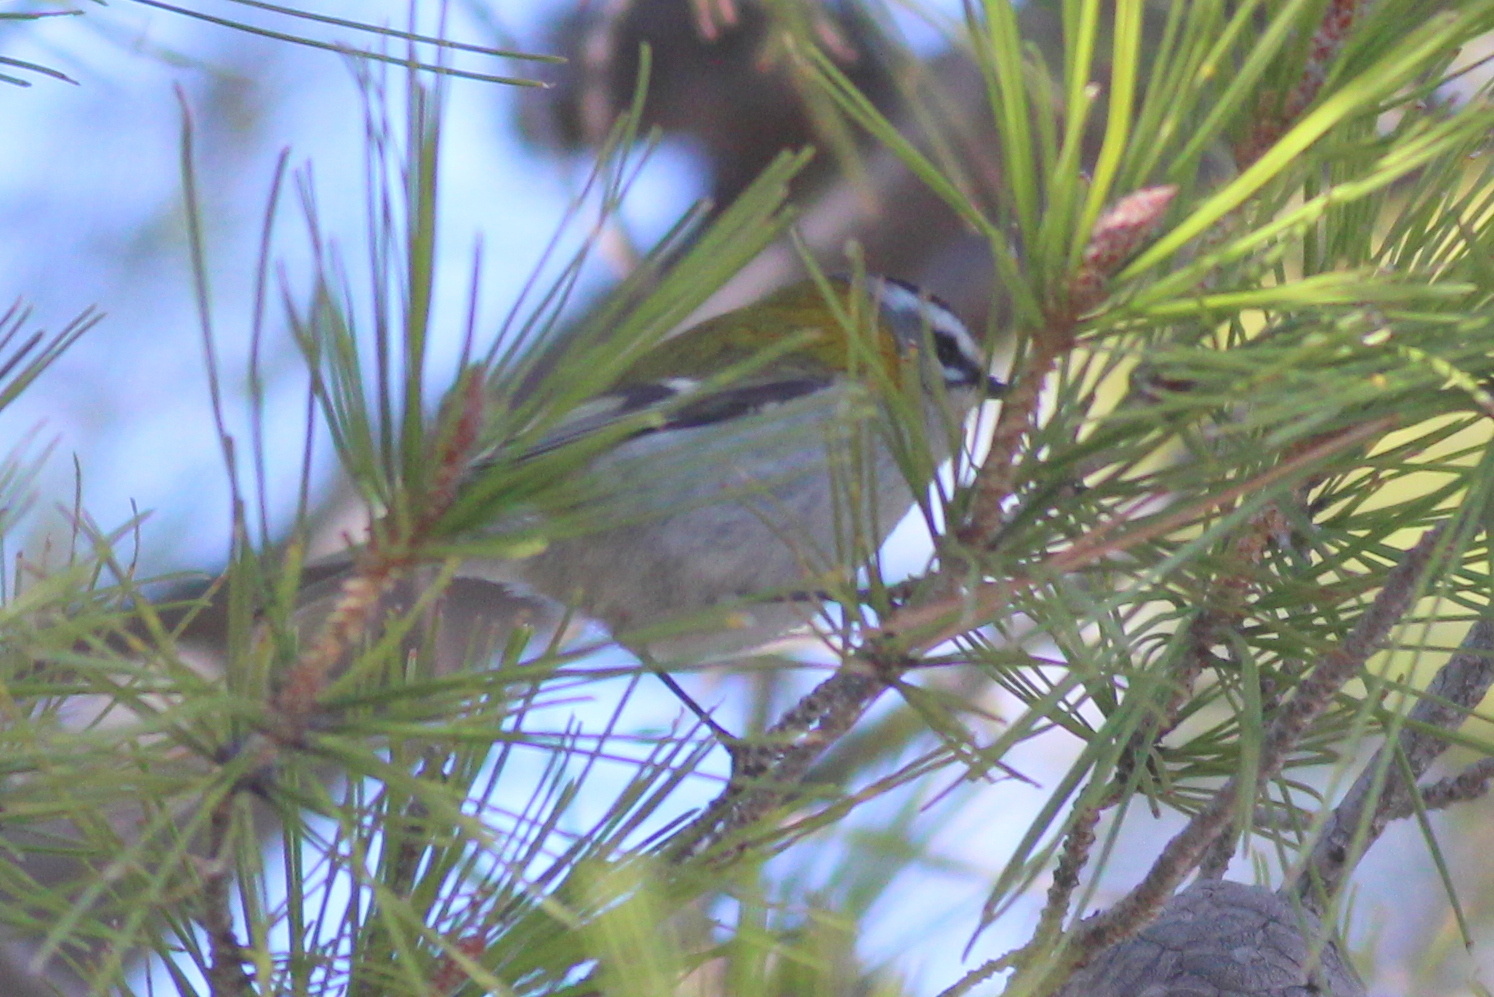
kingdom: Animalia
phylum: Chordata
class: Aves
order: Passeriformes
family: Regulidae
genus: Regulus
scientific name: Regulus ignicapilla
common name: Firecrest
